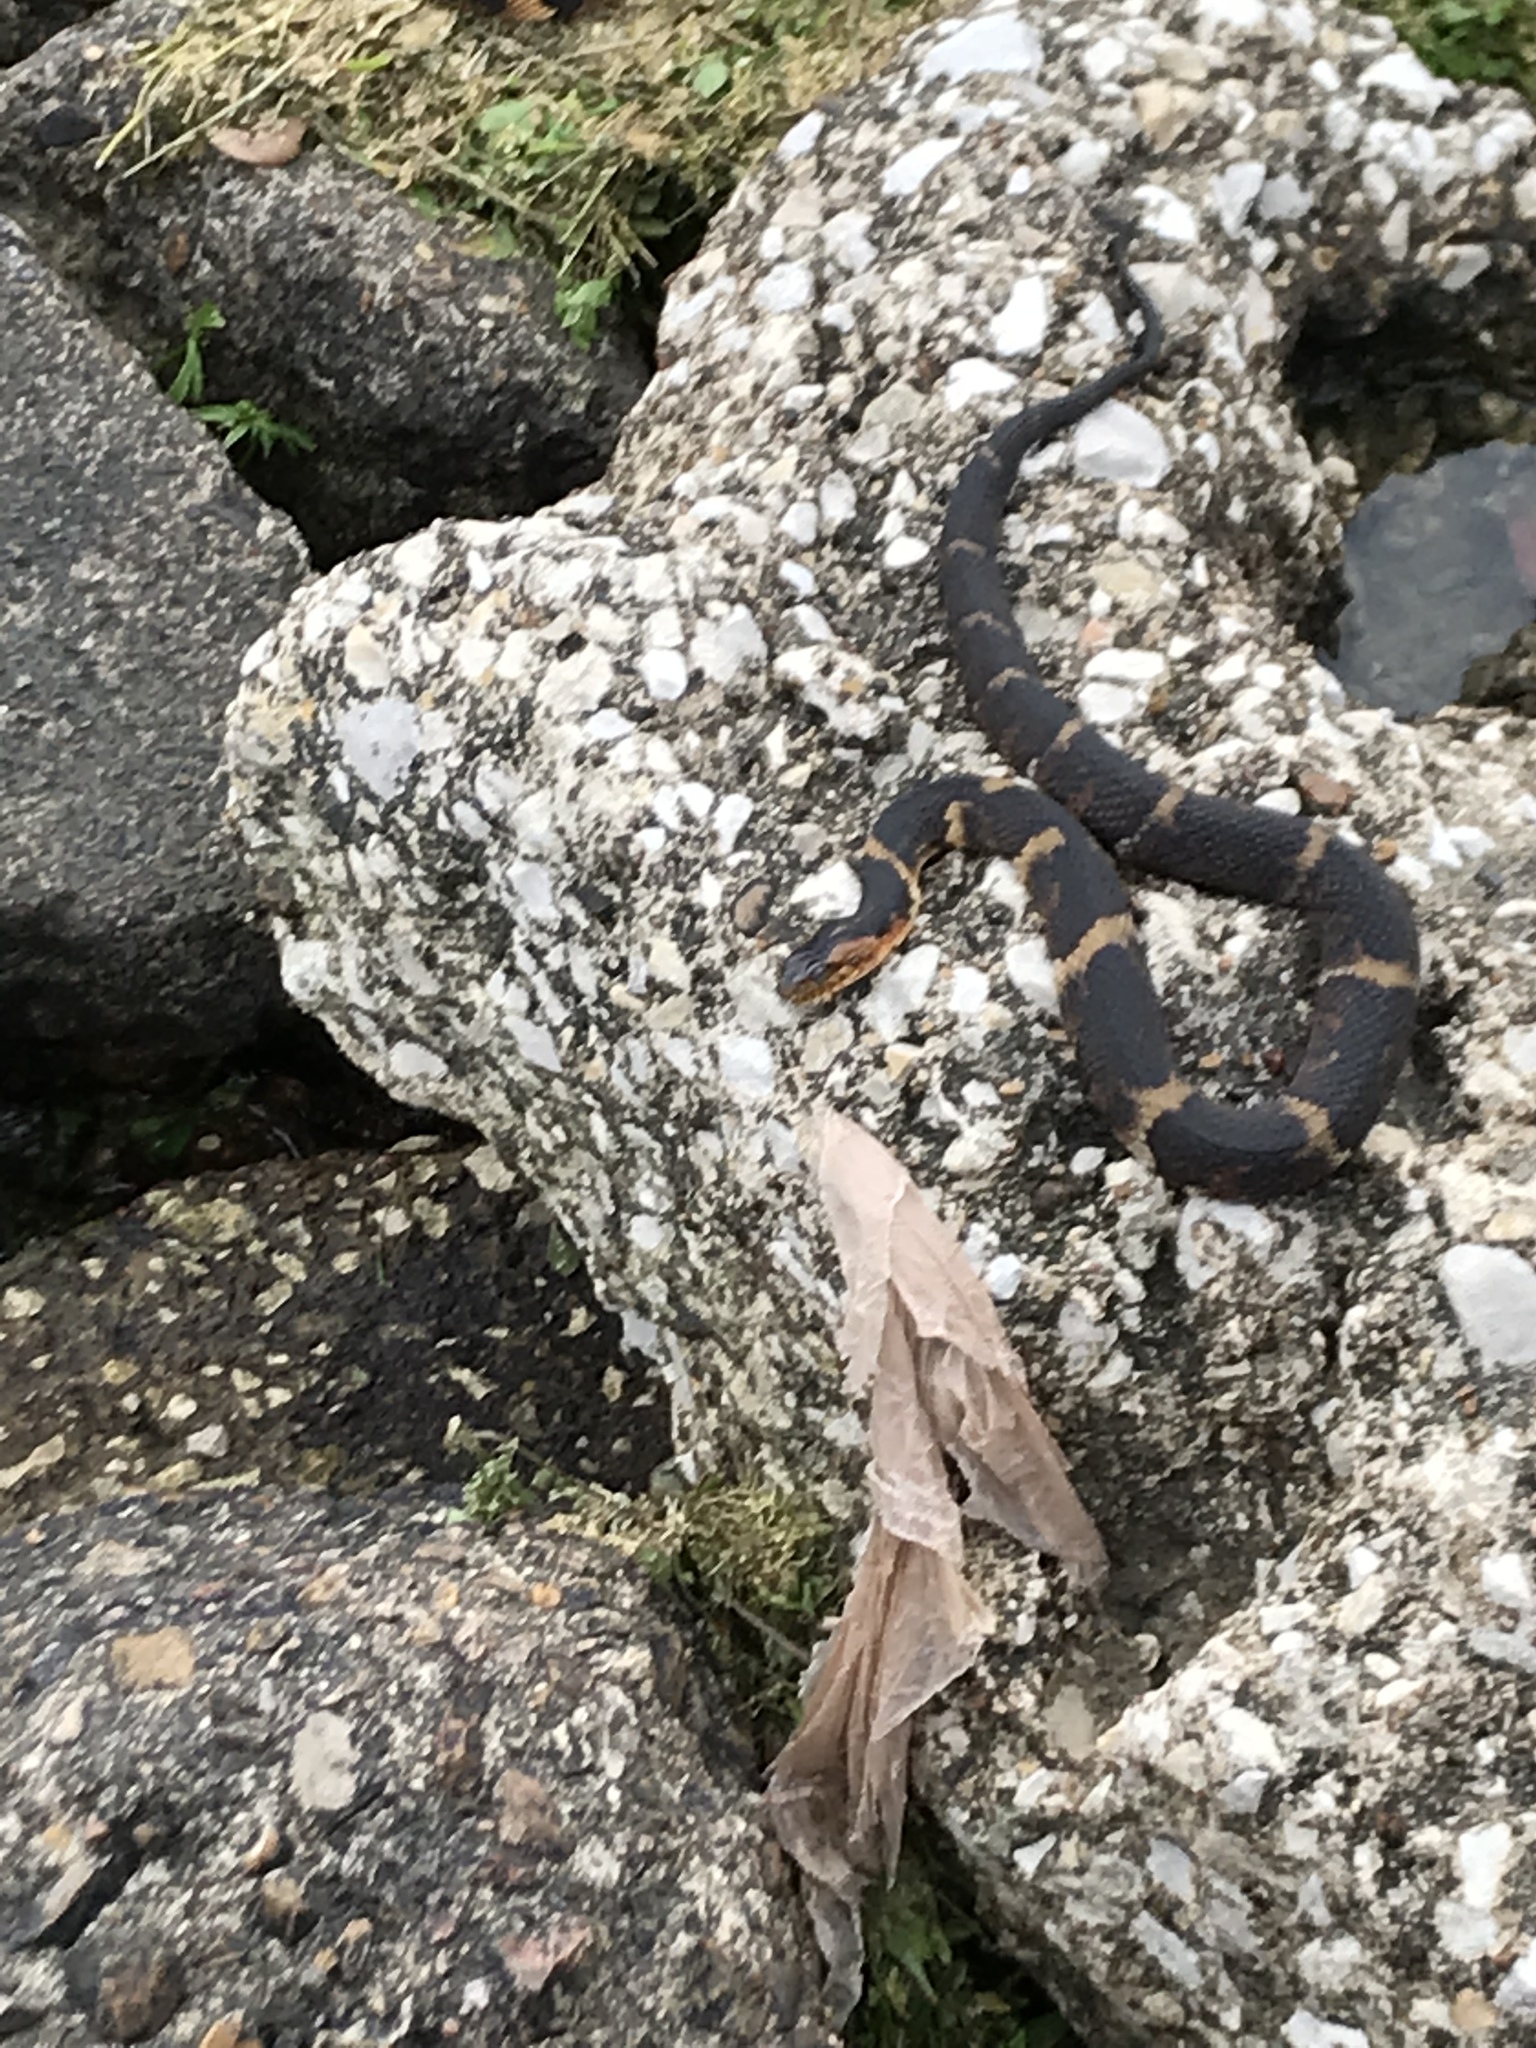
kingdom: Animalia
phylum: Chordata
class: Squamata
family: Colubridae
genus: Nerodia
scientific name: Nerodia fasciata
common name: Southern water snake
